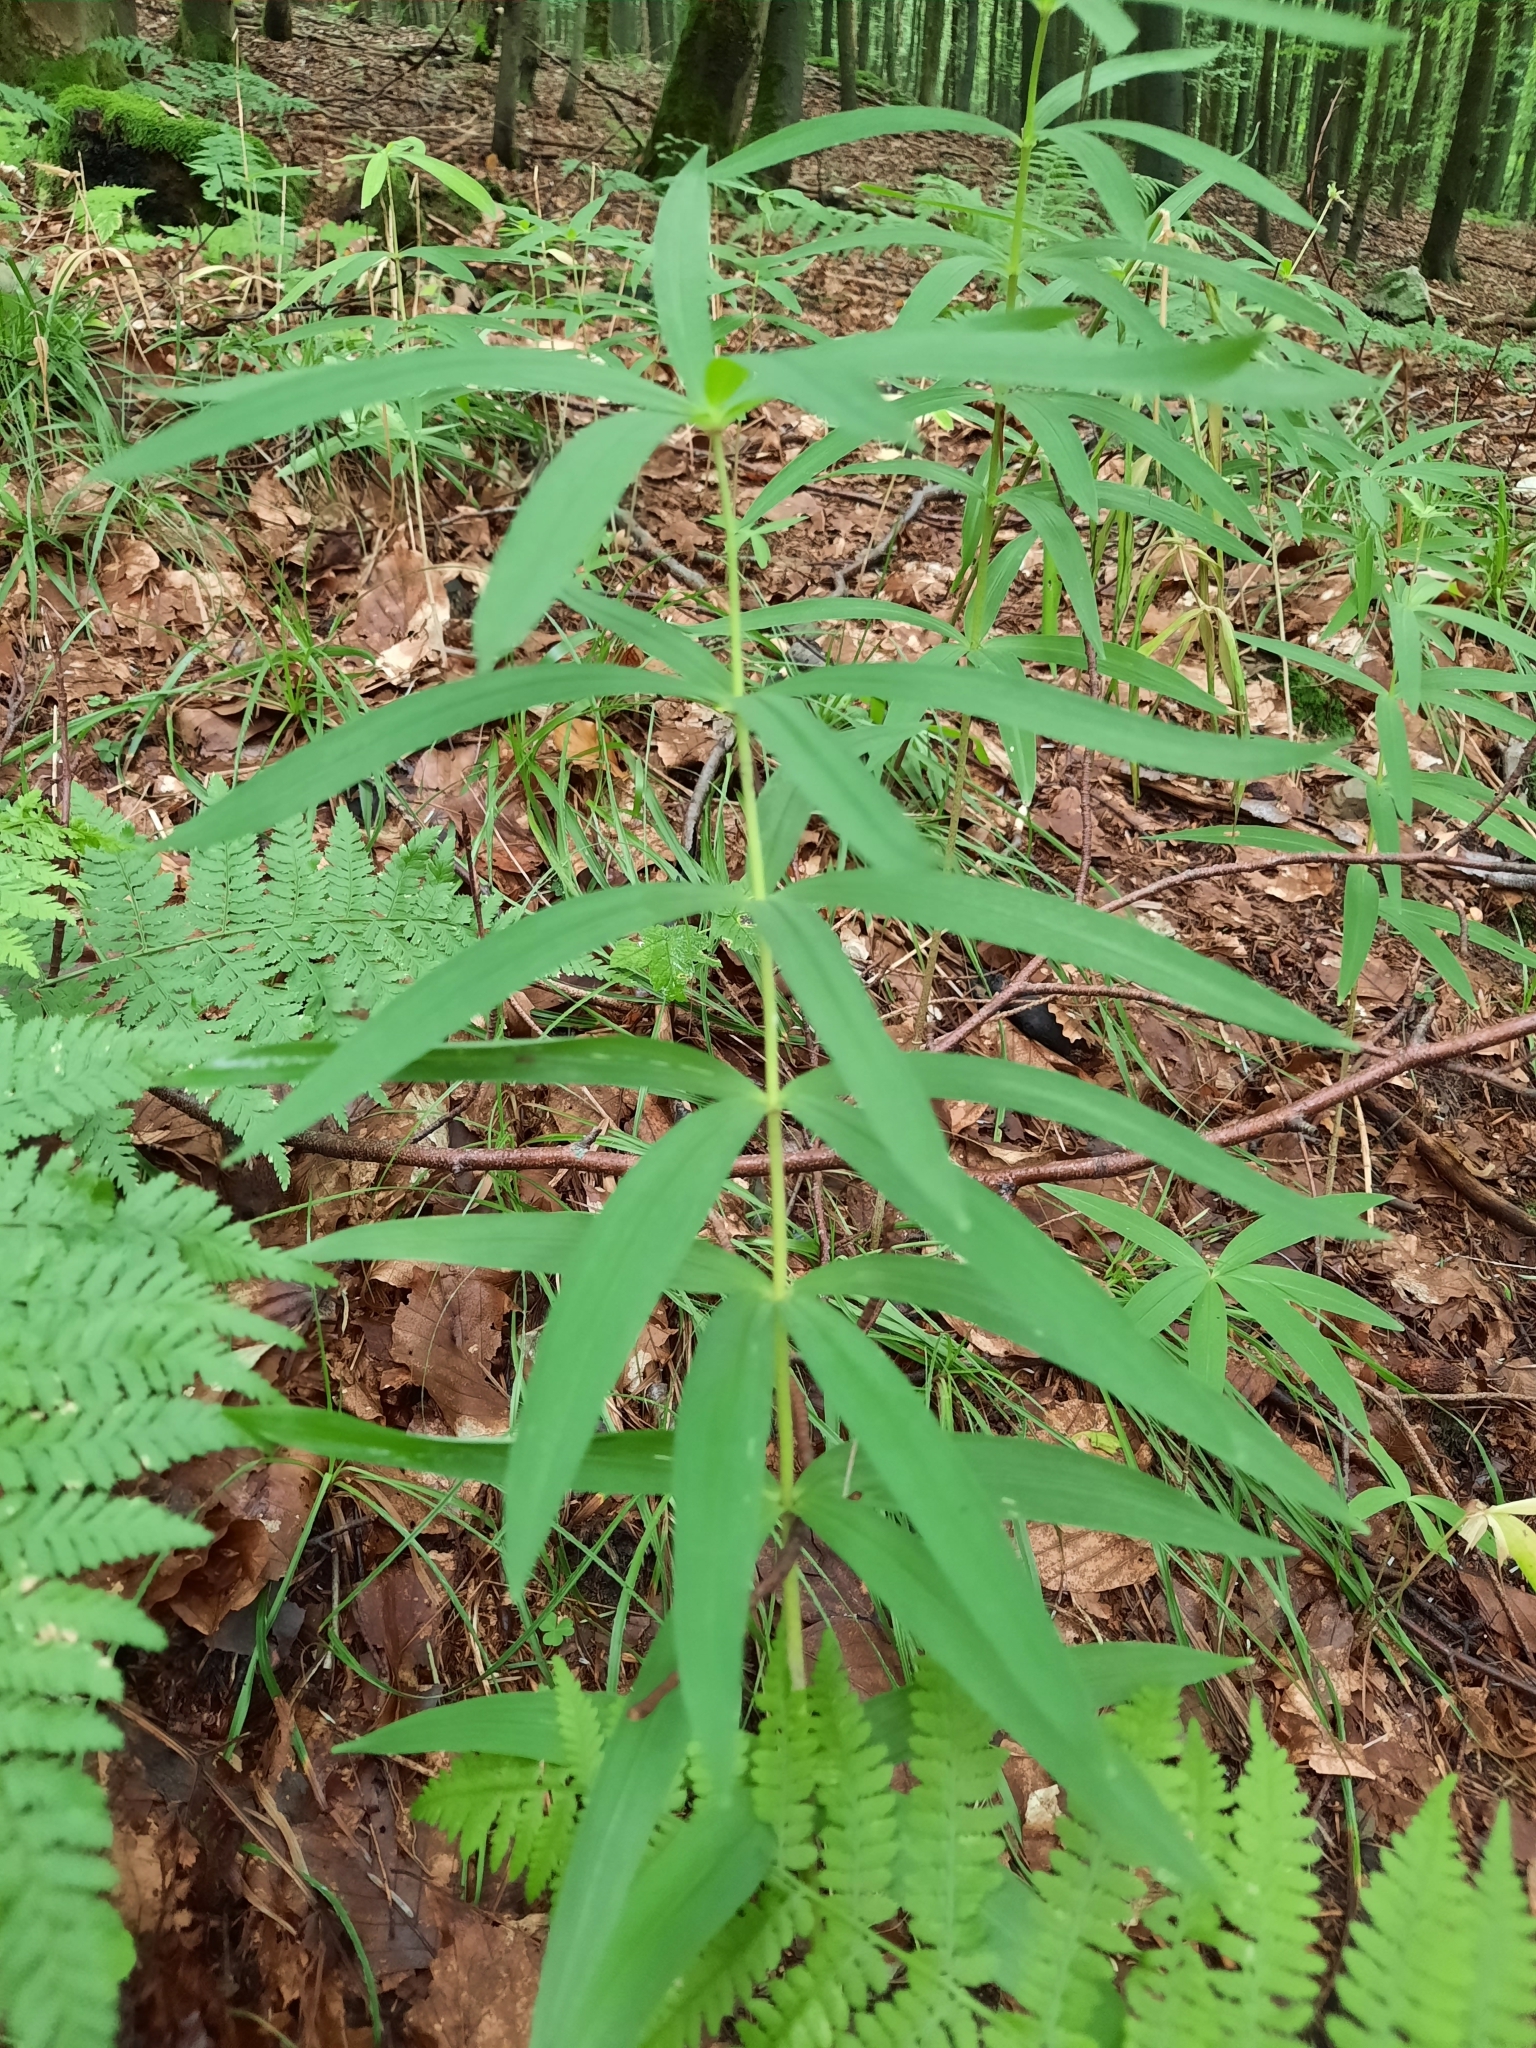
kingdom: Plantae
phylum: Tracheophyta
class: Liliopsida
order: Asparagales
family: Asparagaceae
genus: Polygonatum
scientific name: Polygonatum verticillatum
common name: Whorled solomon's-seal
